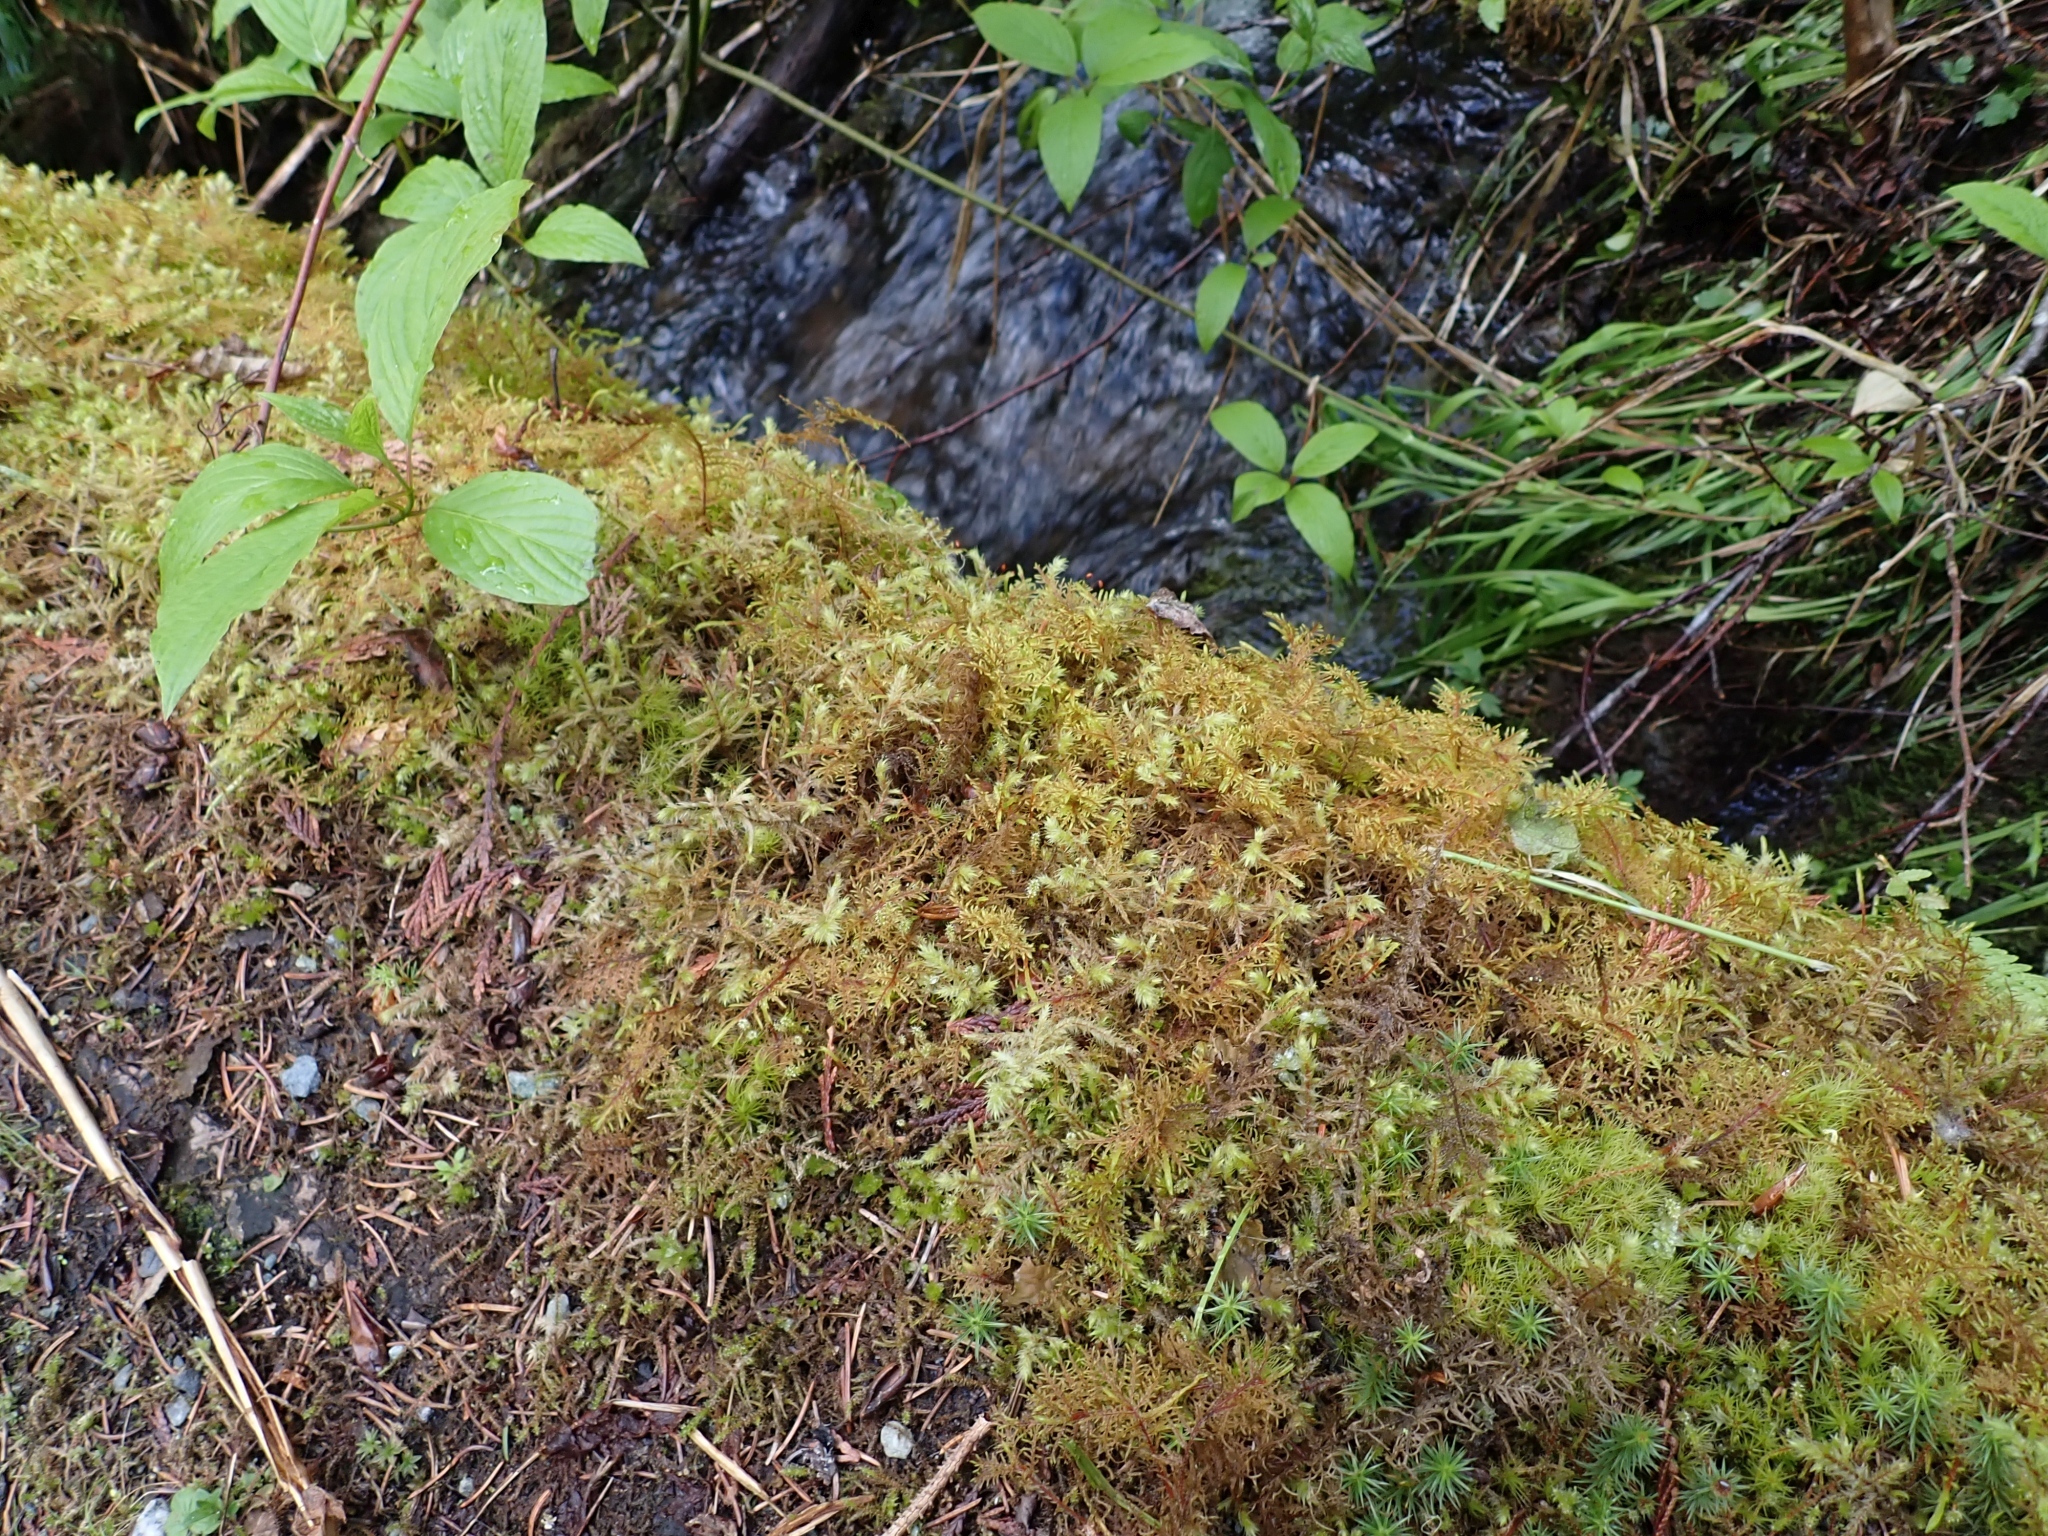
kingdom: Plantae
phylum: Bryophyta
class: Bryopsida
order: Hypnales
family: Hylocomiaceae
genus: Hylocomiadelphus
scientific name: Hylocomiadelphus triquetrus
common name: Rough goose neck moss
